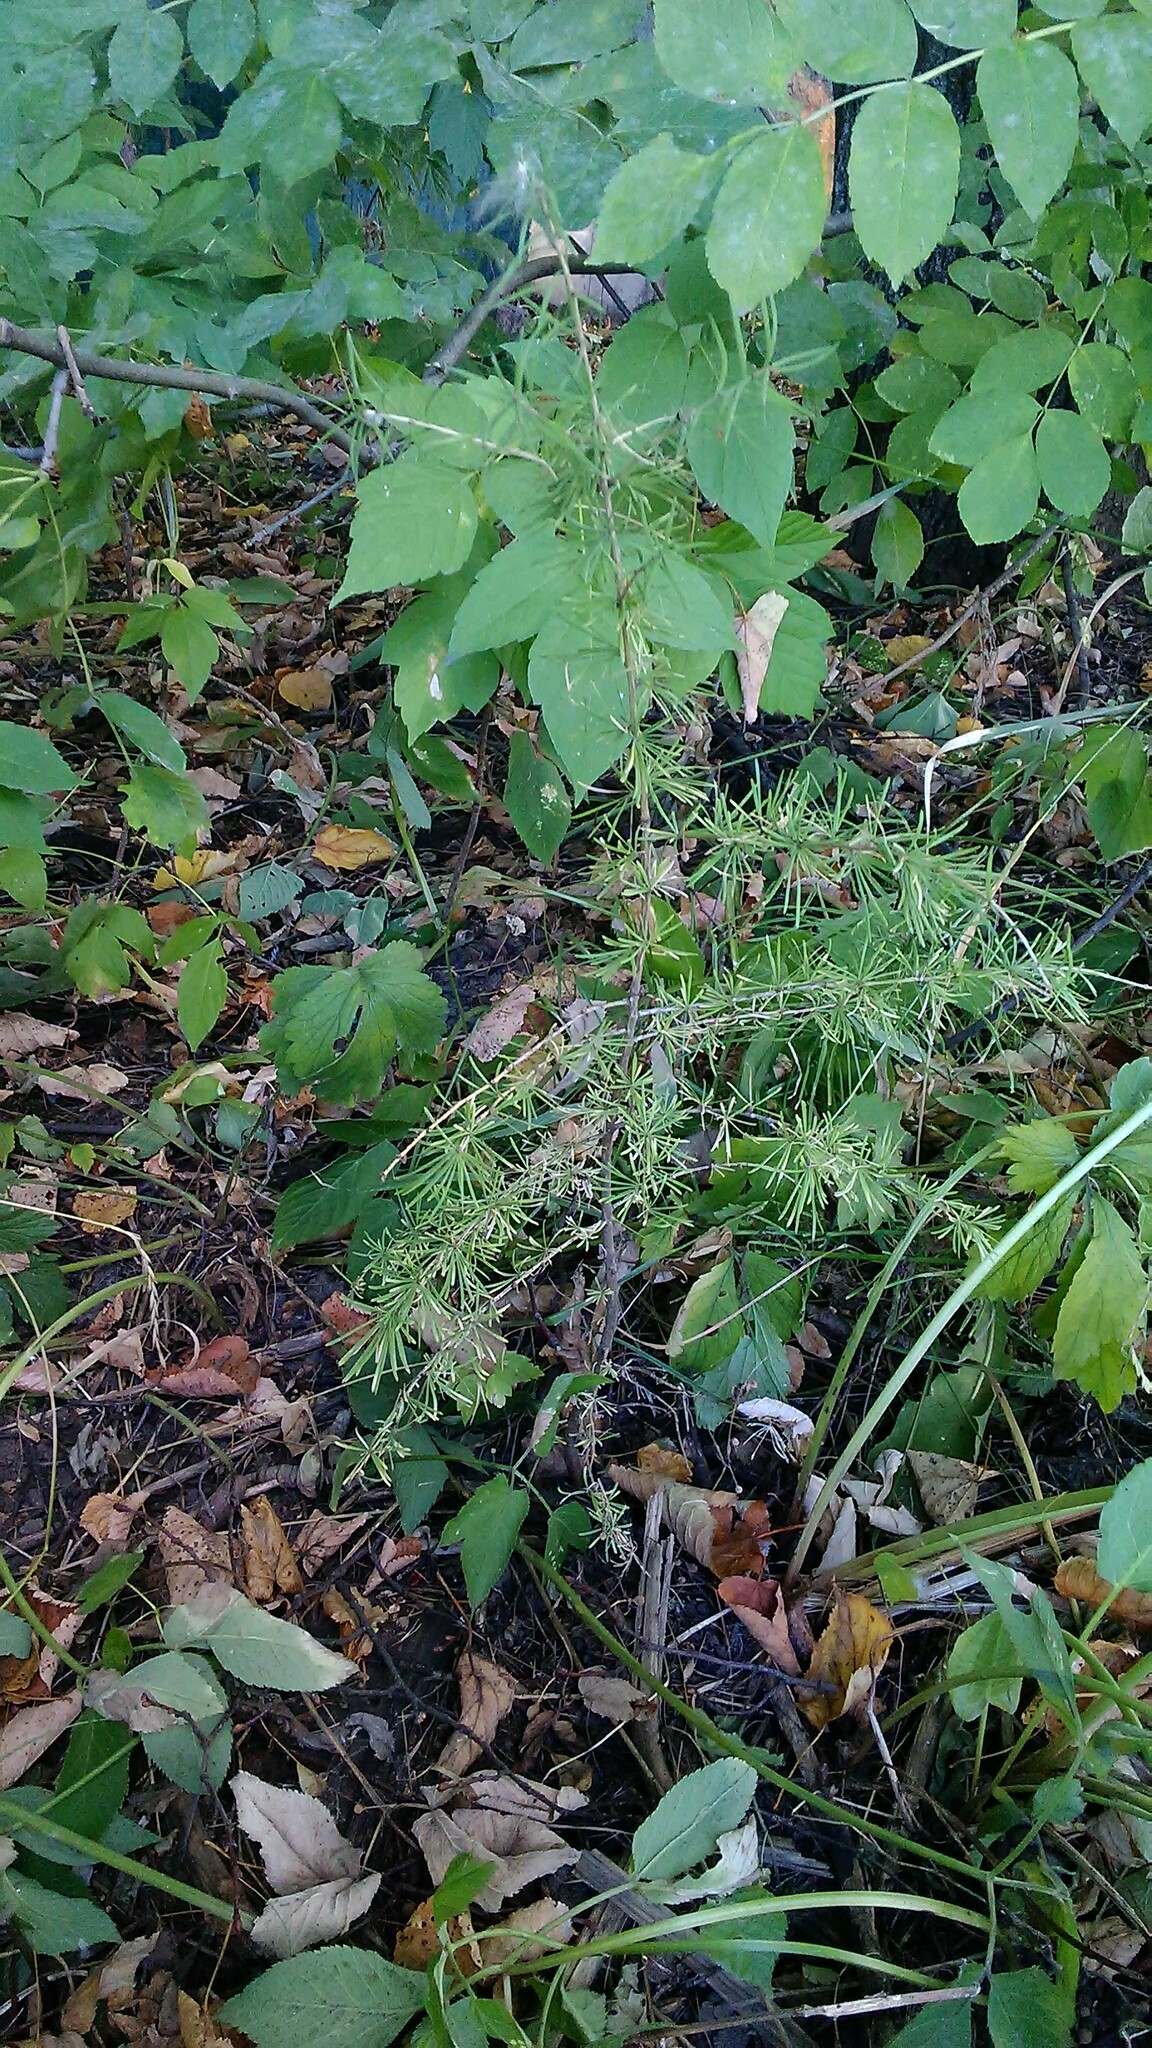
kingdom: Plantae
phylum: Tracheophyta
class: Pinopsida
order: Pinales
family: Pinaceae
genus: Larix
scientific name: Larix decidua
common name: European larch
